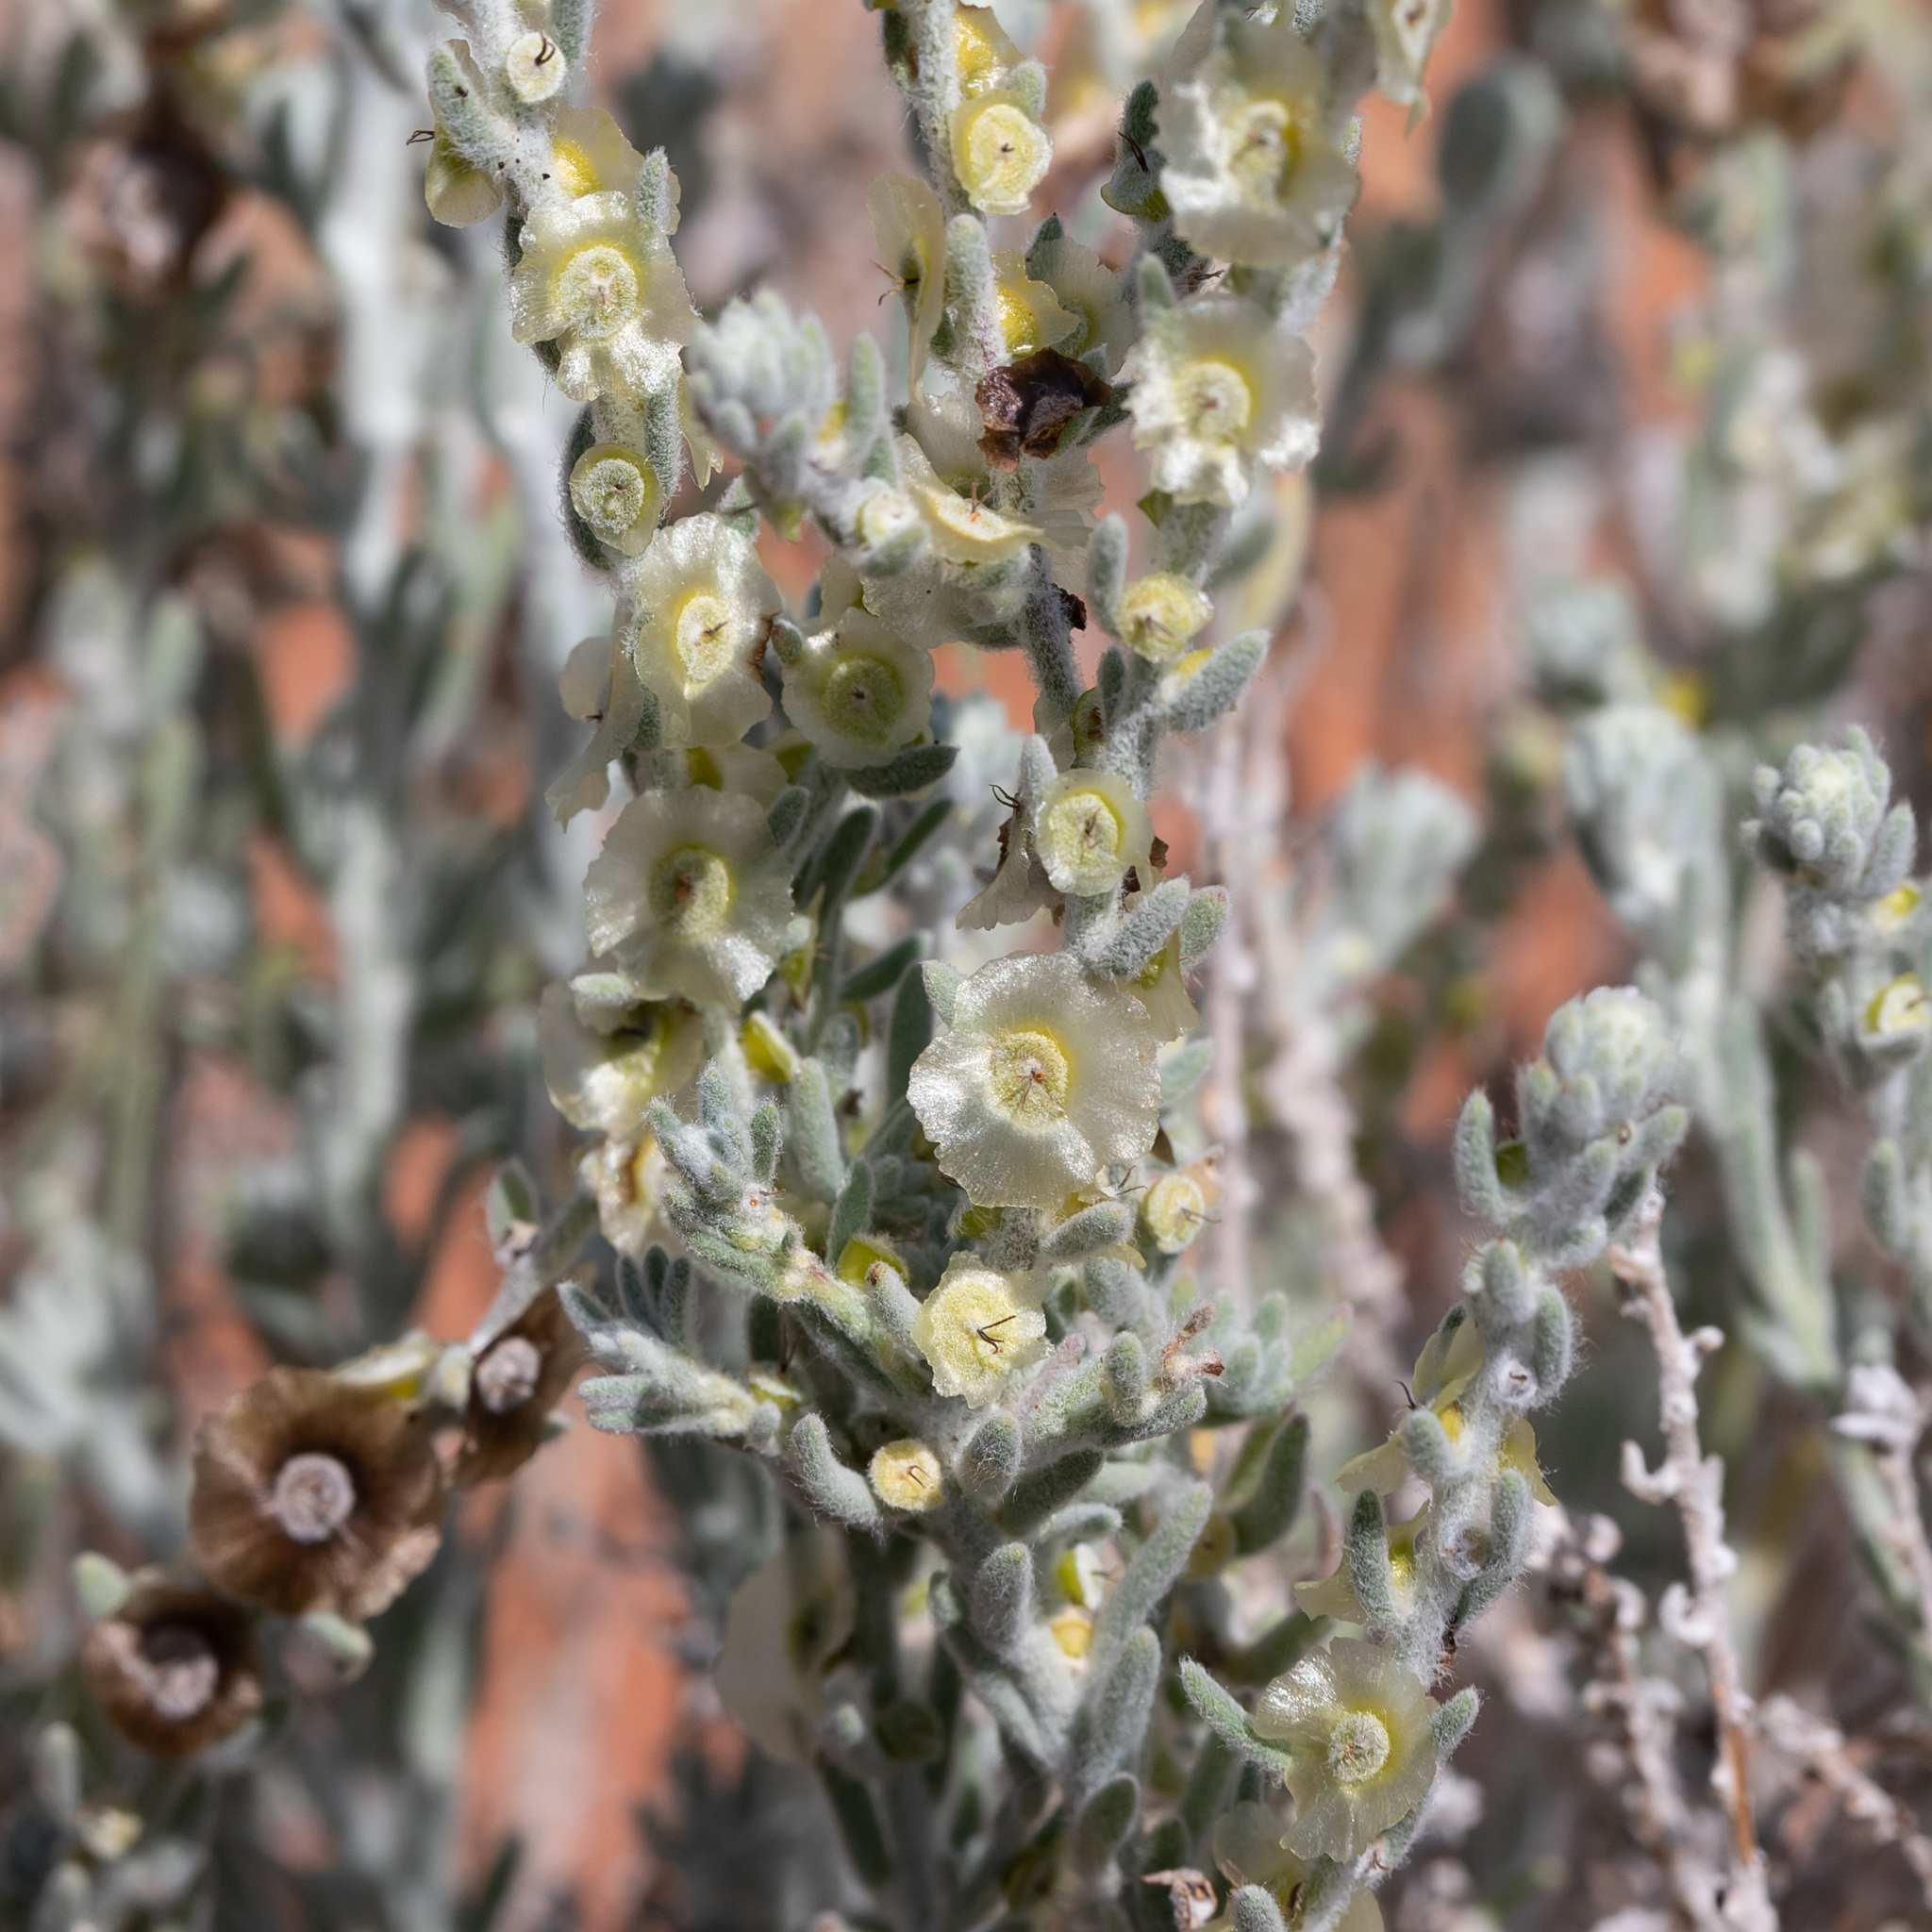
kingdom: Plantae
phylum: Tracheophyta
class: Magnoliopsida
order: Caryophyllales
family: Amaranthaceae
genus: Maireana
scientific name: Maireana appressa
